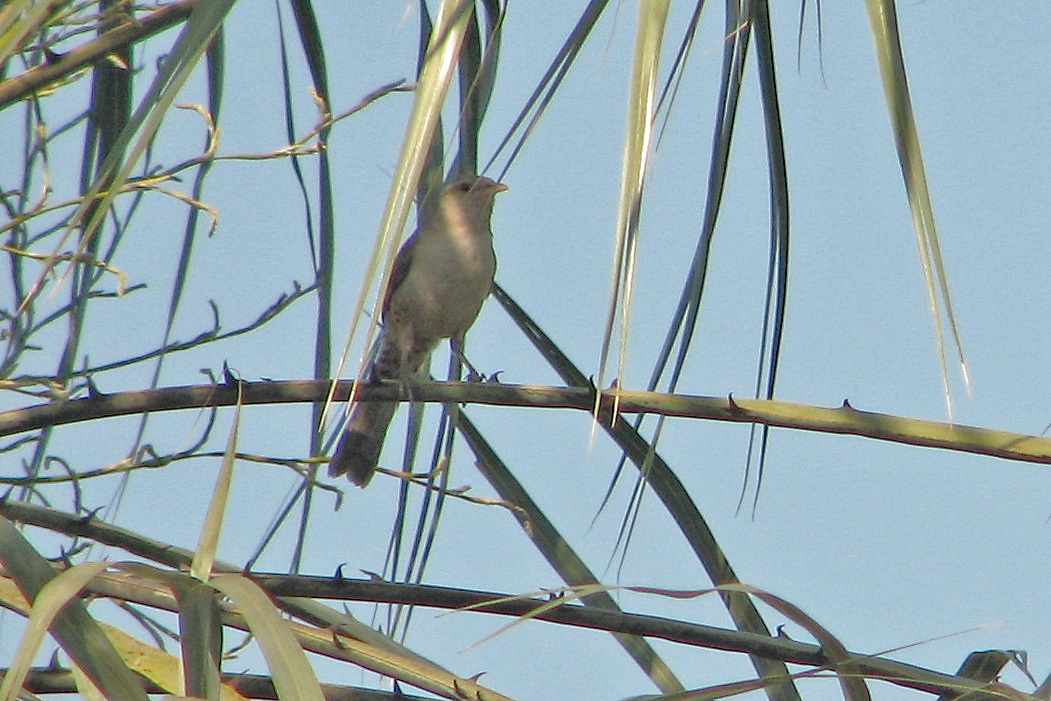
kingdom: Animalia
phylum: Chordata
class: Aves
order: Passeriformes
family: Troglodytidae
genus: Campylorhynchus
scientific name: Campylorhynchus turdinus
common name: Thrush-like wren
